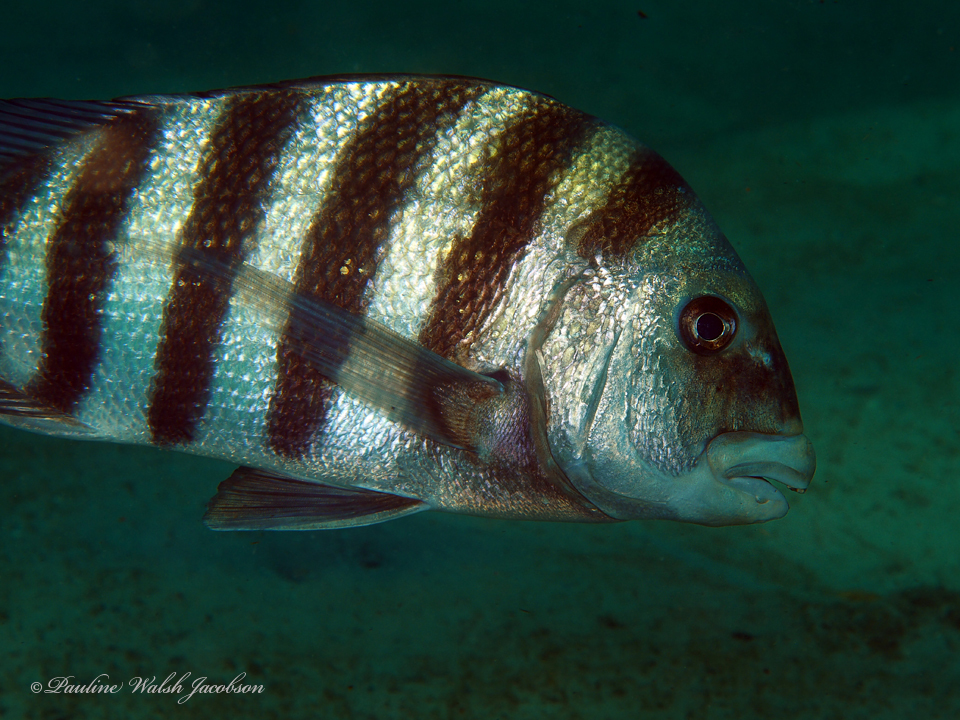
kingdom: Animalia
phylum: Chordata
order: Perciformes
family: Sparidae
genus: Archosargus
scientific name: Archosargus probatocephalus
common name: Sheepshead
